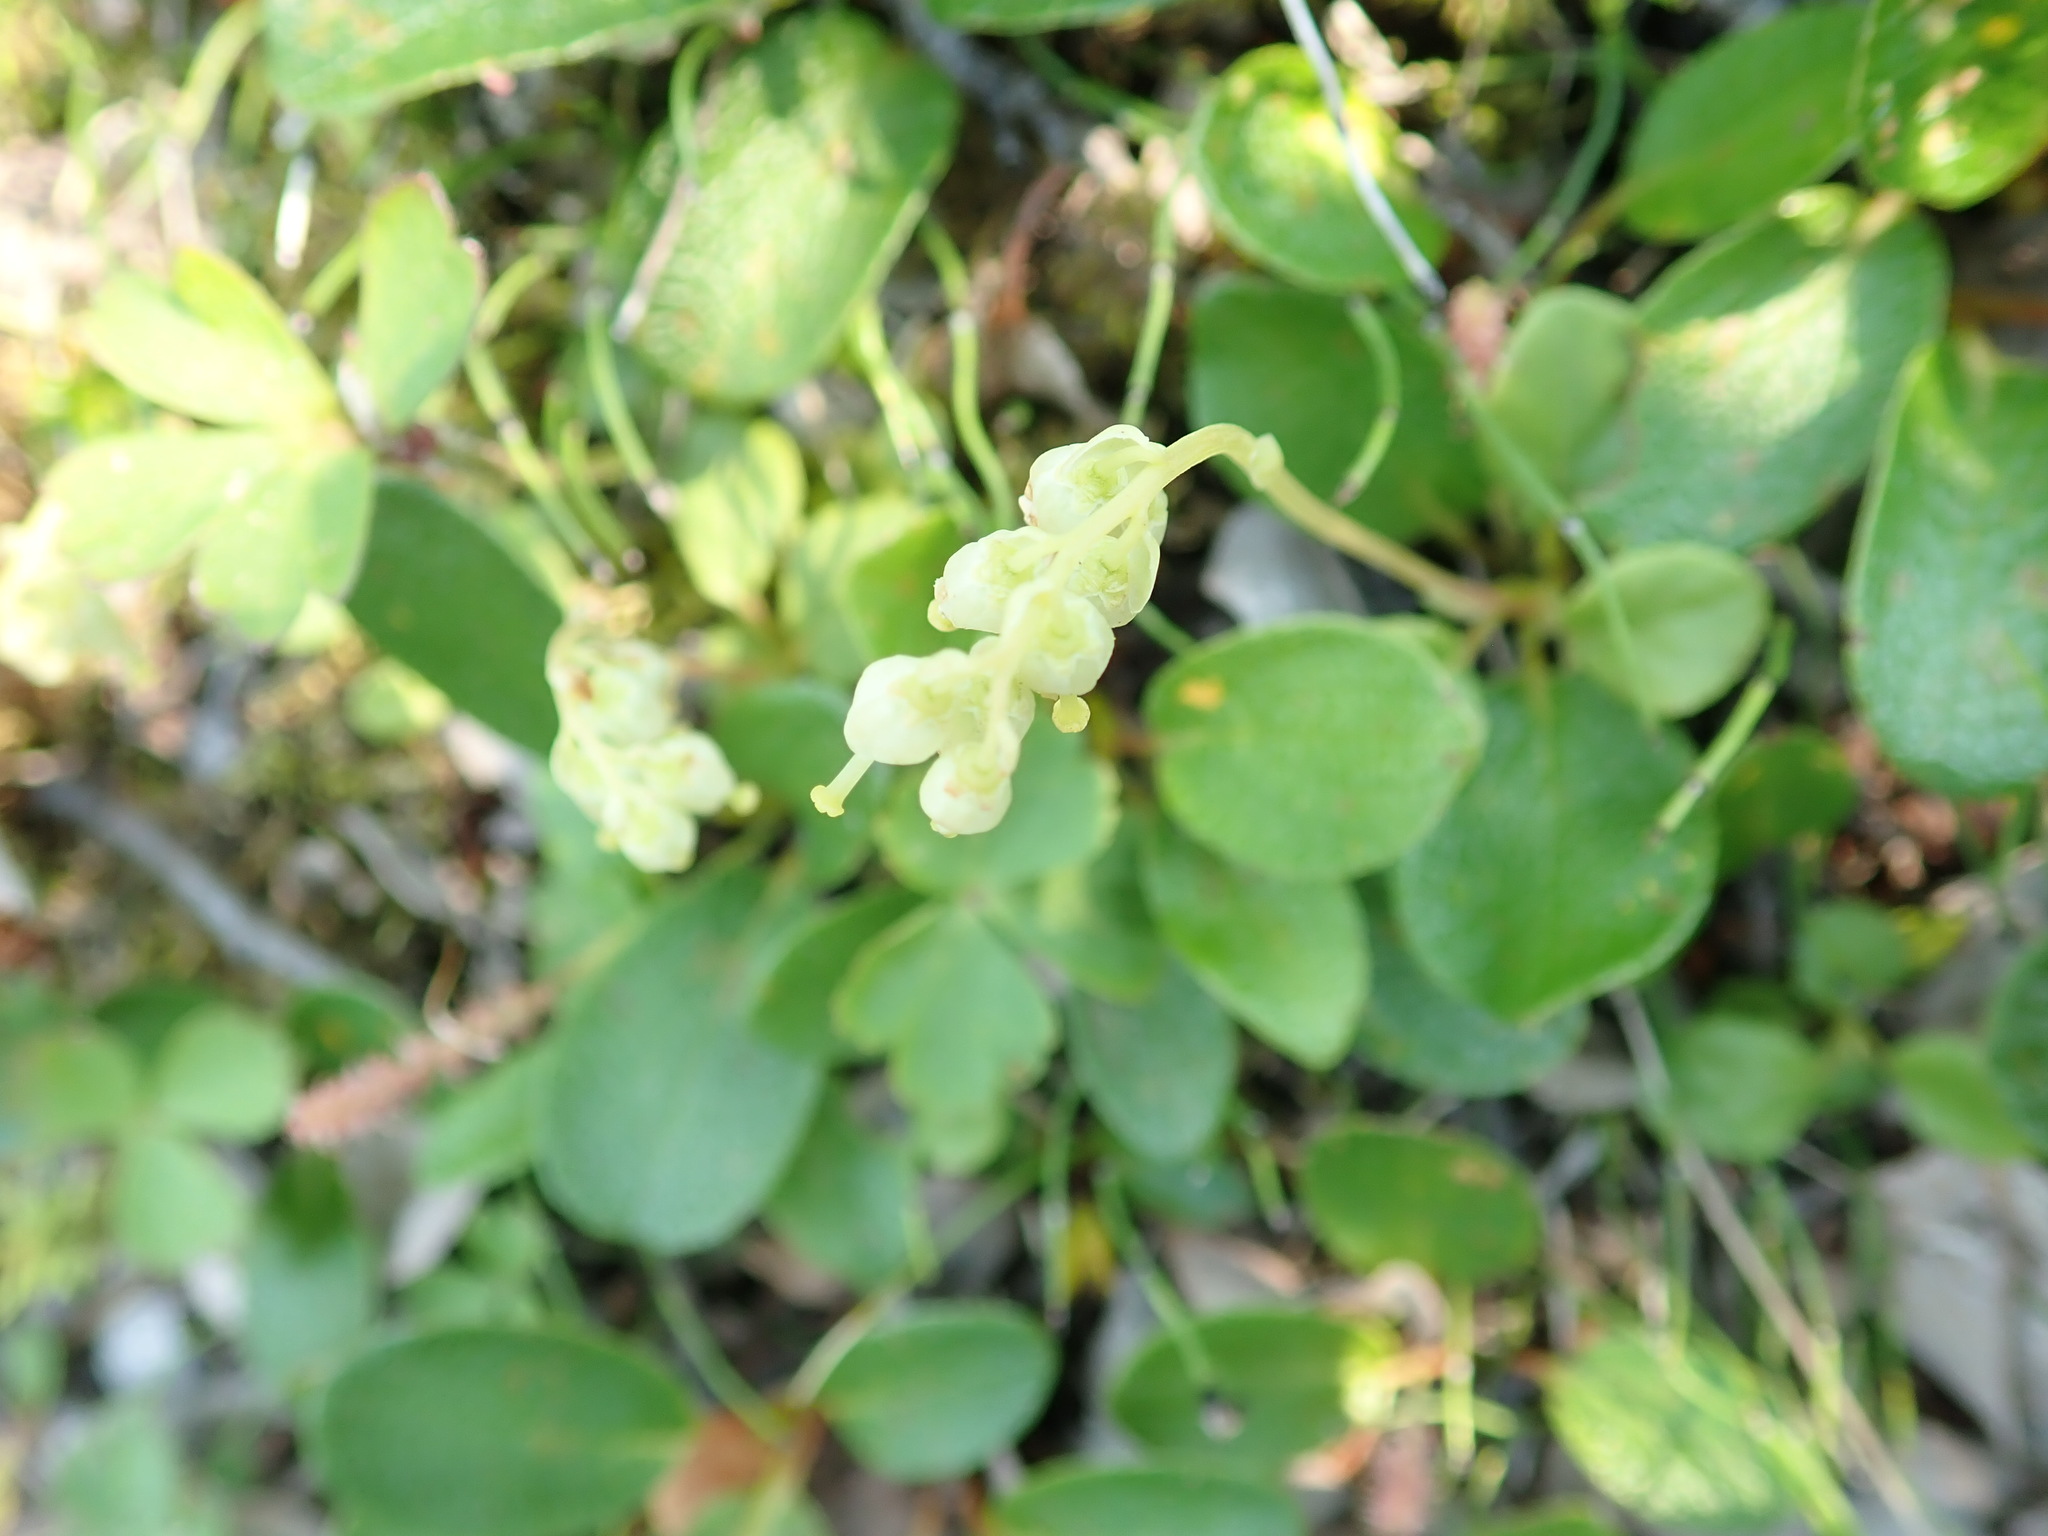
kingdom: Plantae
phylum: Tracheophyta
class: Magnoliopsida
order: Ericales
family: Ericaceae
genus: Orthilia
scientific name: Orthilia secunda
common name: One-sided orthilia
